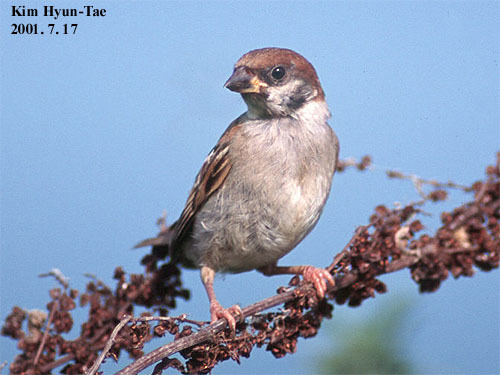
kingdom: Animalia
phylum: Chordata
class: Aves
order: Passeriformes
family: Passeridae
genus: Passer
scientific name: Passer montanus
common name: Eurasian tree sparrow
